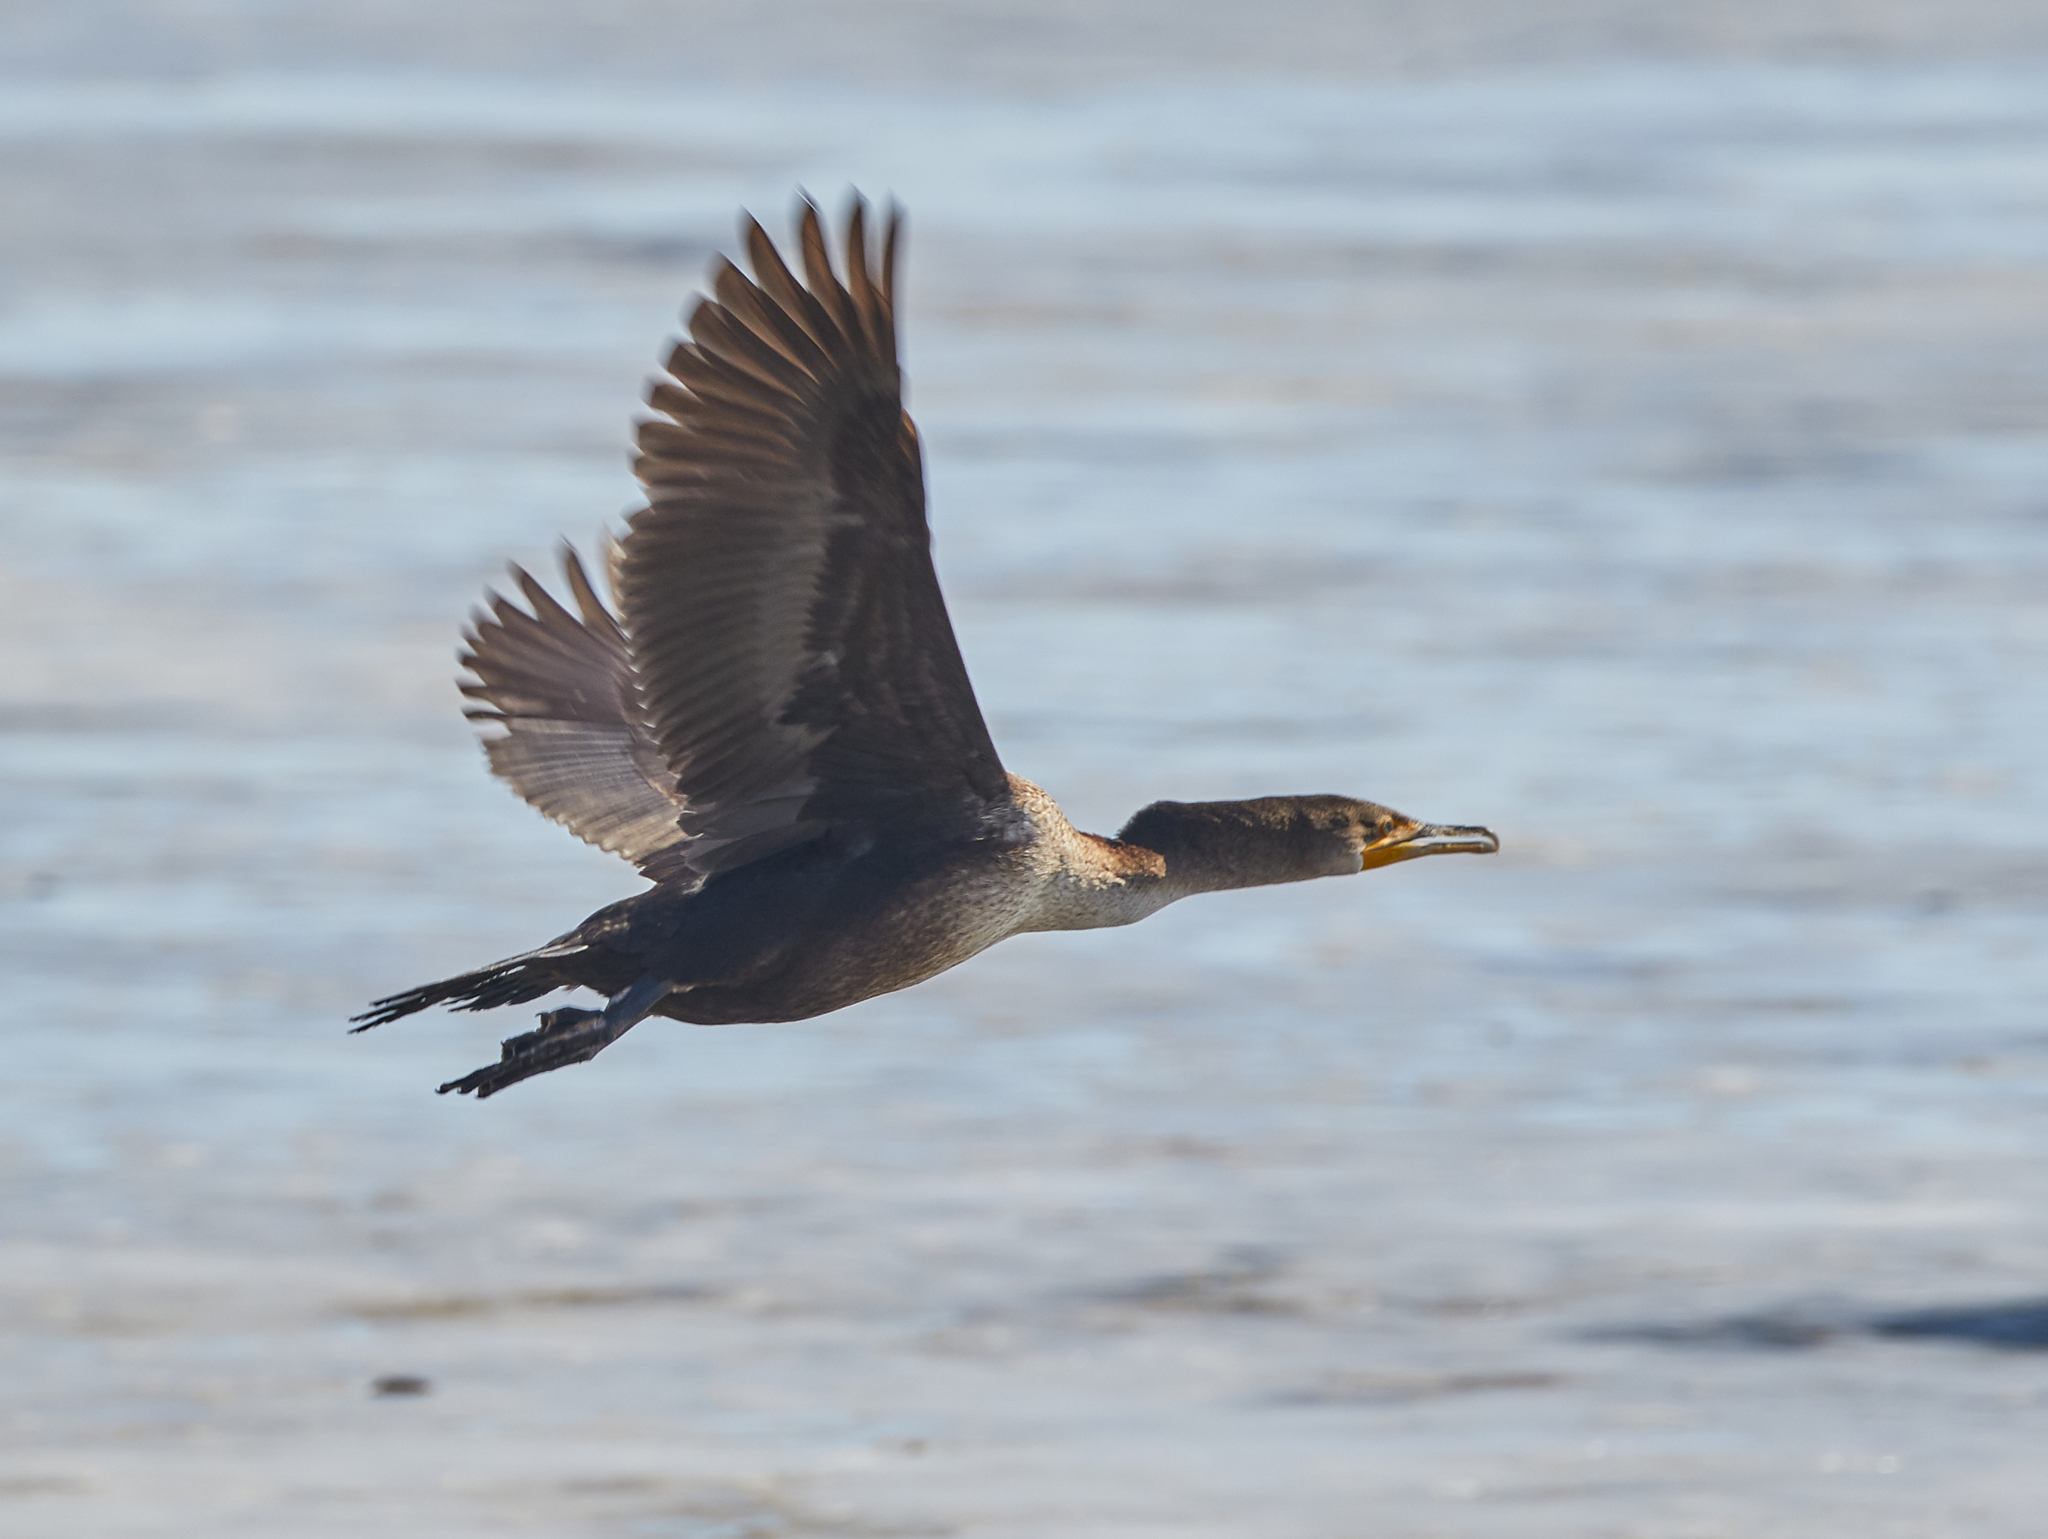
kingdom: Animalia
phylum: Chordata
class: Aves
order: Suliformes
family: Phalacrocoracidae
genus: Phalacrocorax
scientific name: Phalacrocorax auritus
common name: Double-crested cormorant
